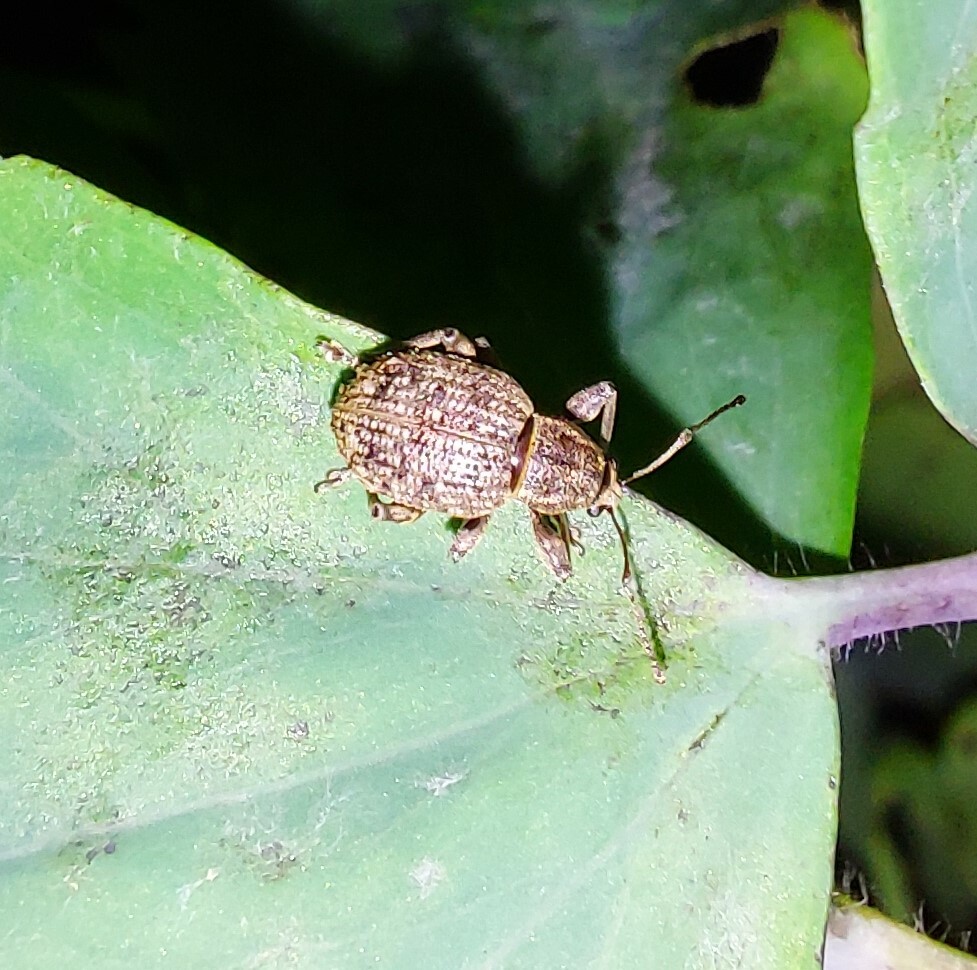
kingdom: Animalia
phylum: Arthropoda
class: Insecta
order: Coleoptera
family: Curculionidae
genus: Phlyctinus
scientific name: Phlyctinus callosus
